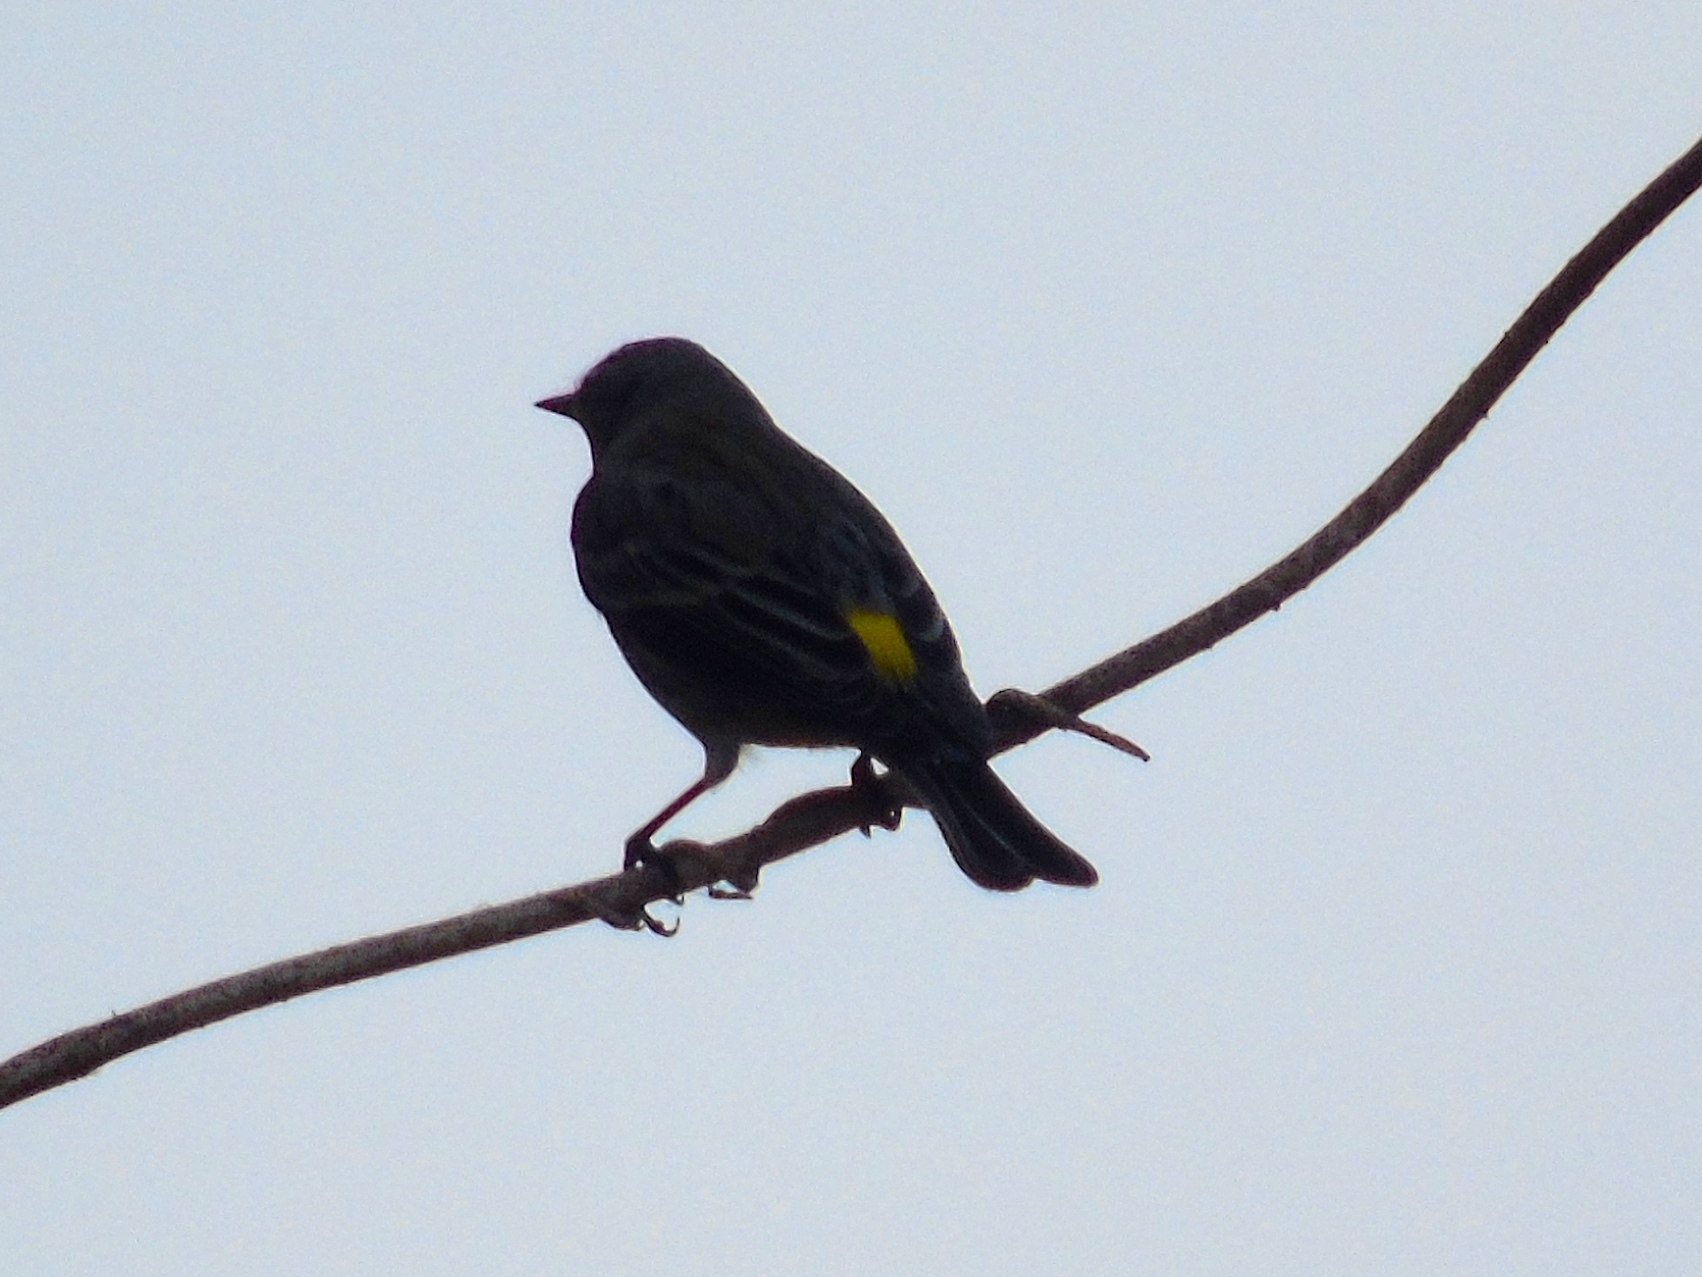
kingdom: Animalia
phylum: Chordata
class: Aves
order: Passeriformes
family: Parulidae
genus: Setophaga
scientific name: Setophaga coronata
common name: Myrtle warbler
